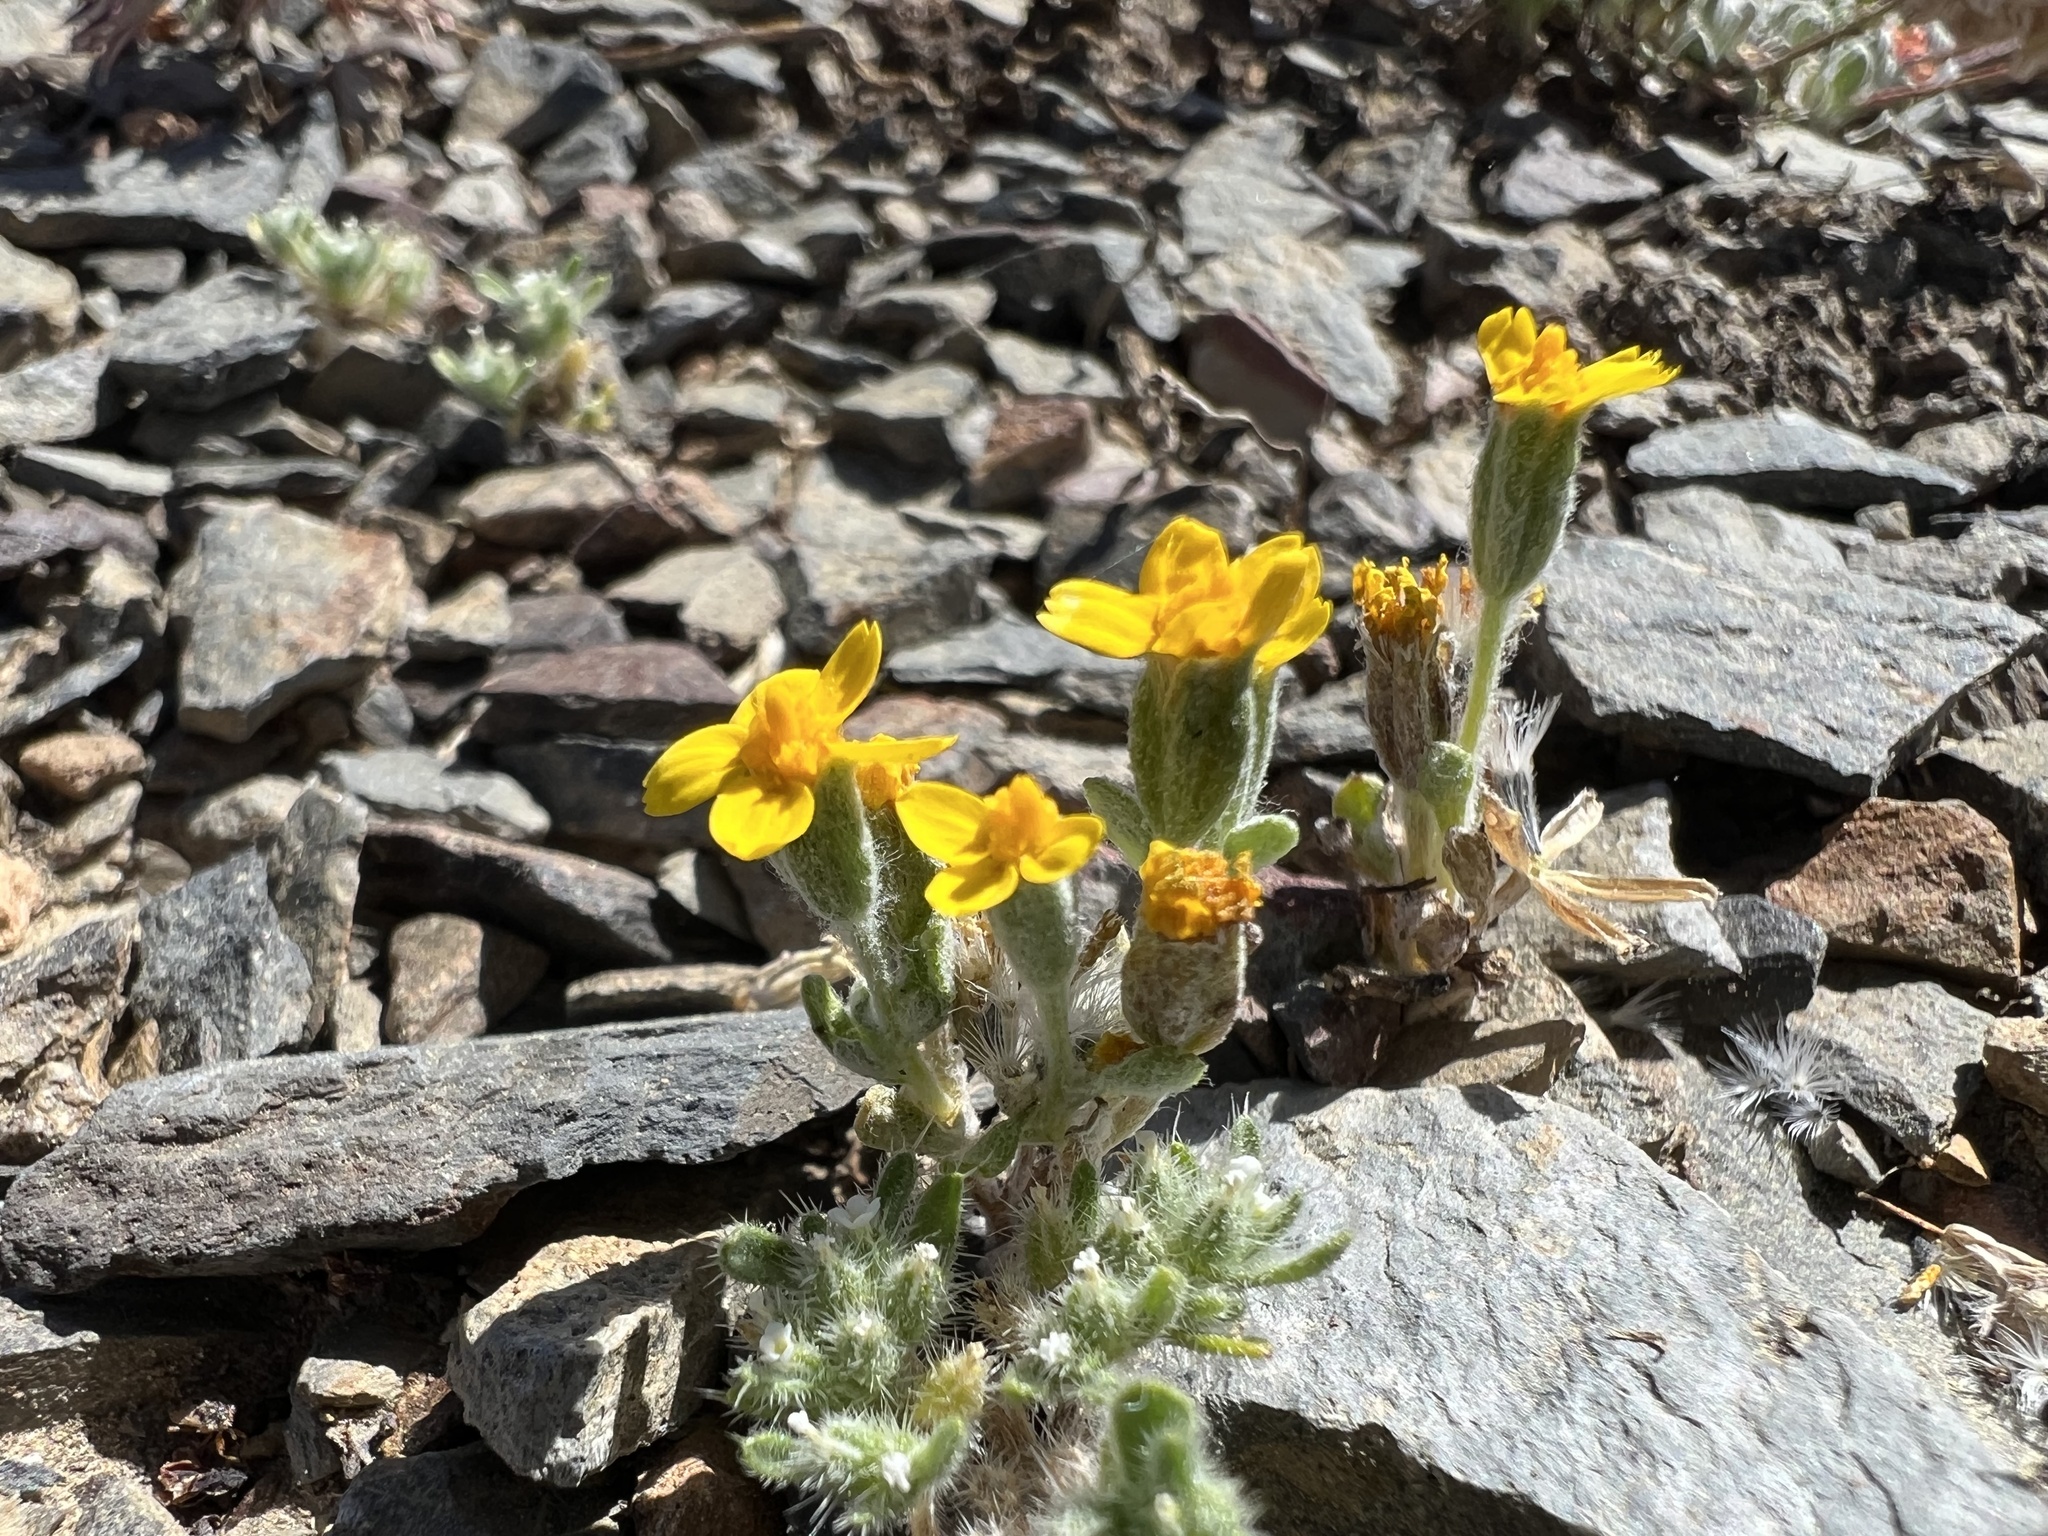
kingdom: Plantae
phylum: Tracheophyta
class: Magnoliopsida
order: Asterales
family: Asteraceae
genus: Syntrichopappus
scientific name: Syntrichopappus fremontii
